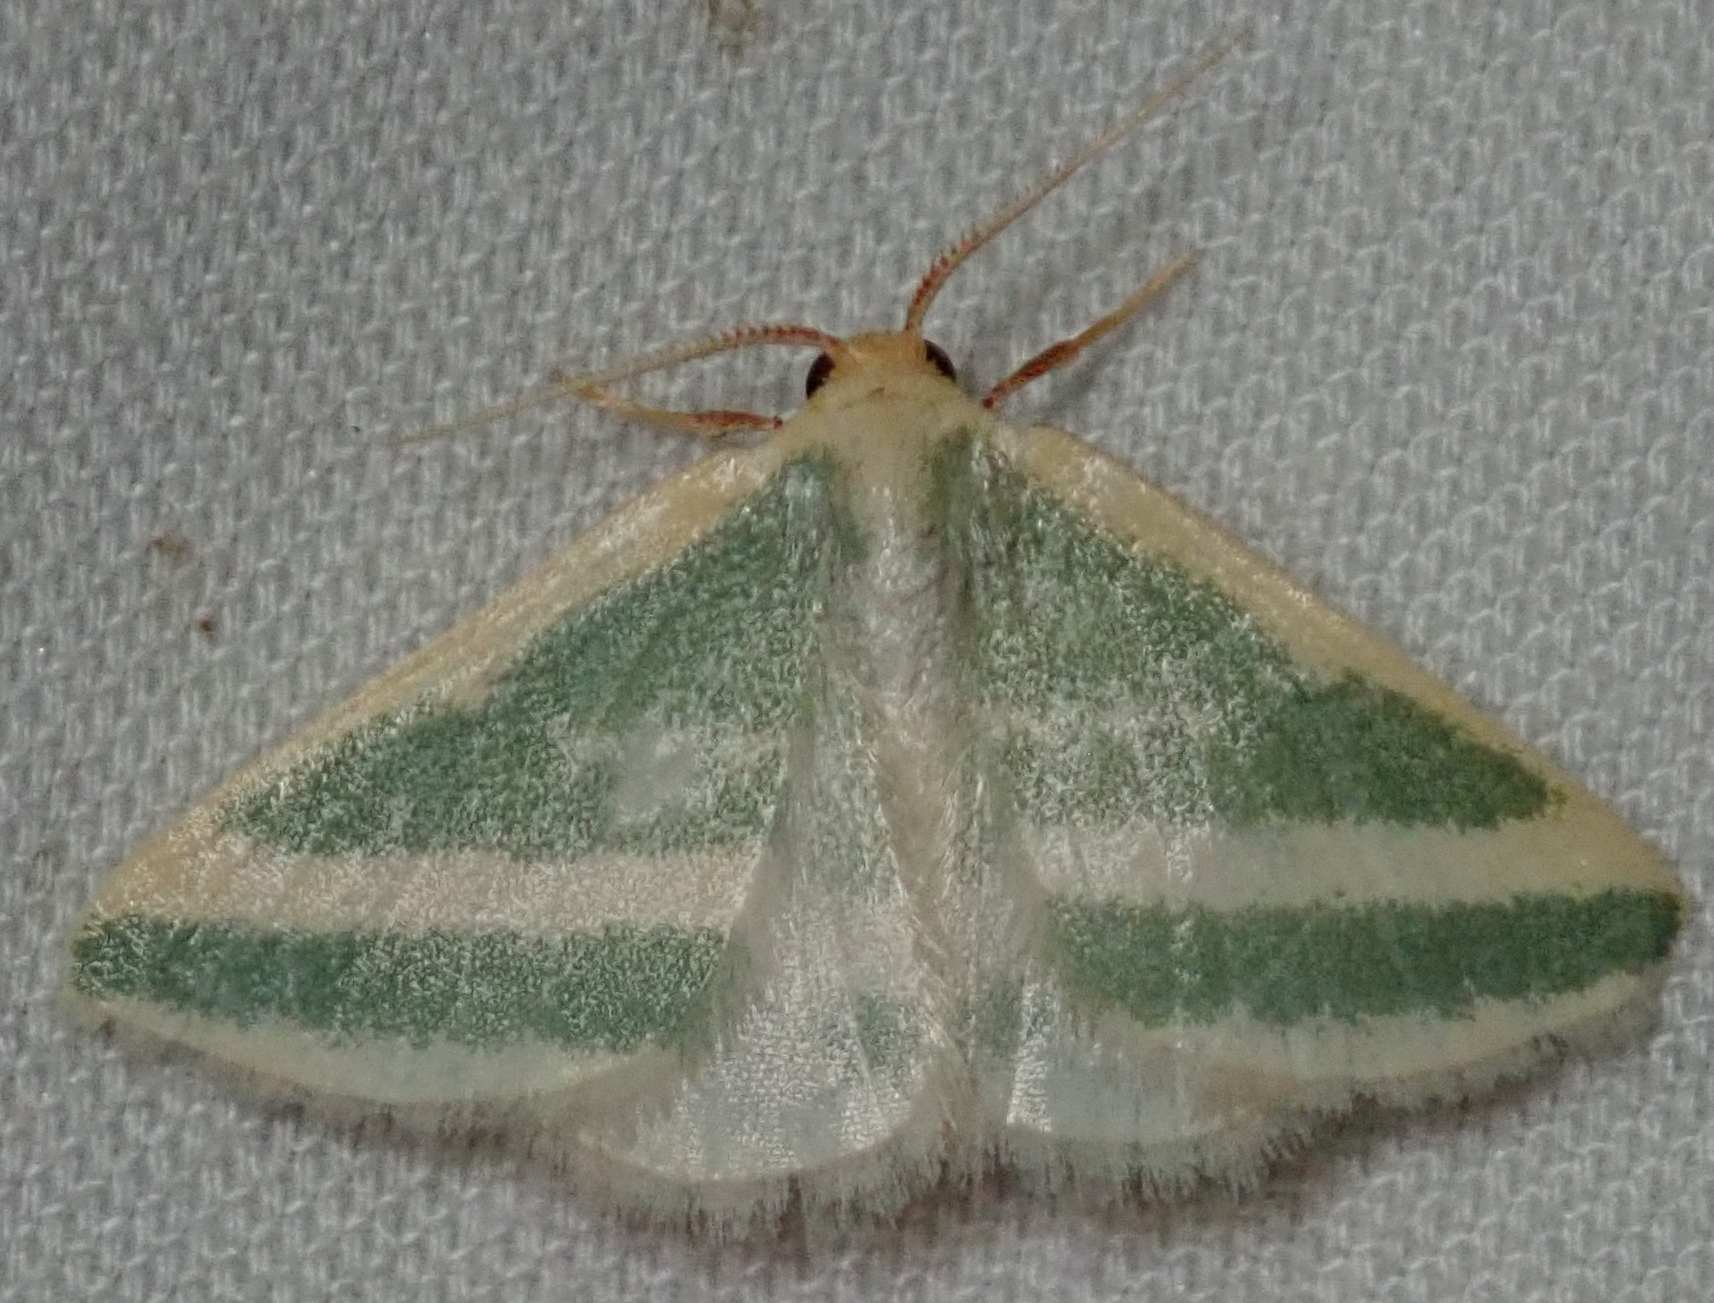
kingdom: Animalia
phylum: Arthropoda
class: Insecta
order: Lepidoptera
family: Geometridae
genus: Mixocera
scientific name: Mixocera frustratoria
